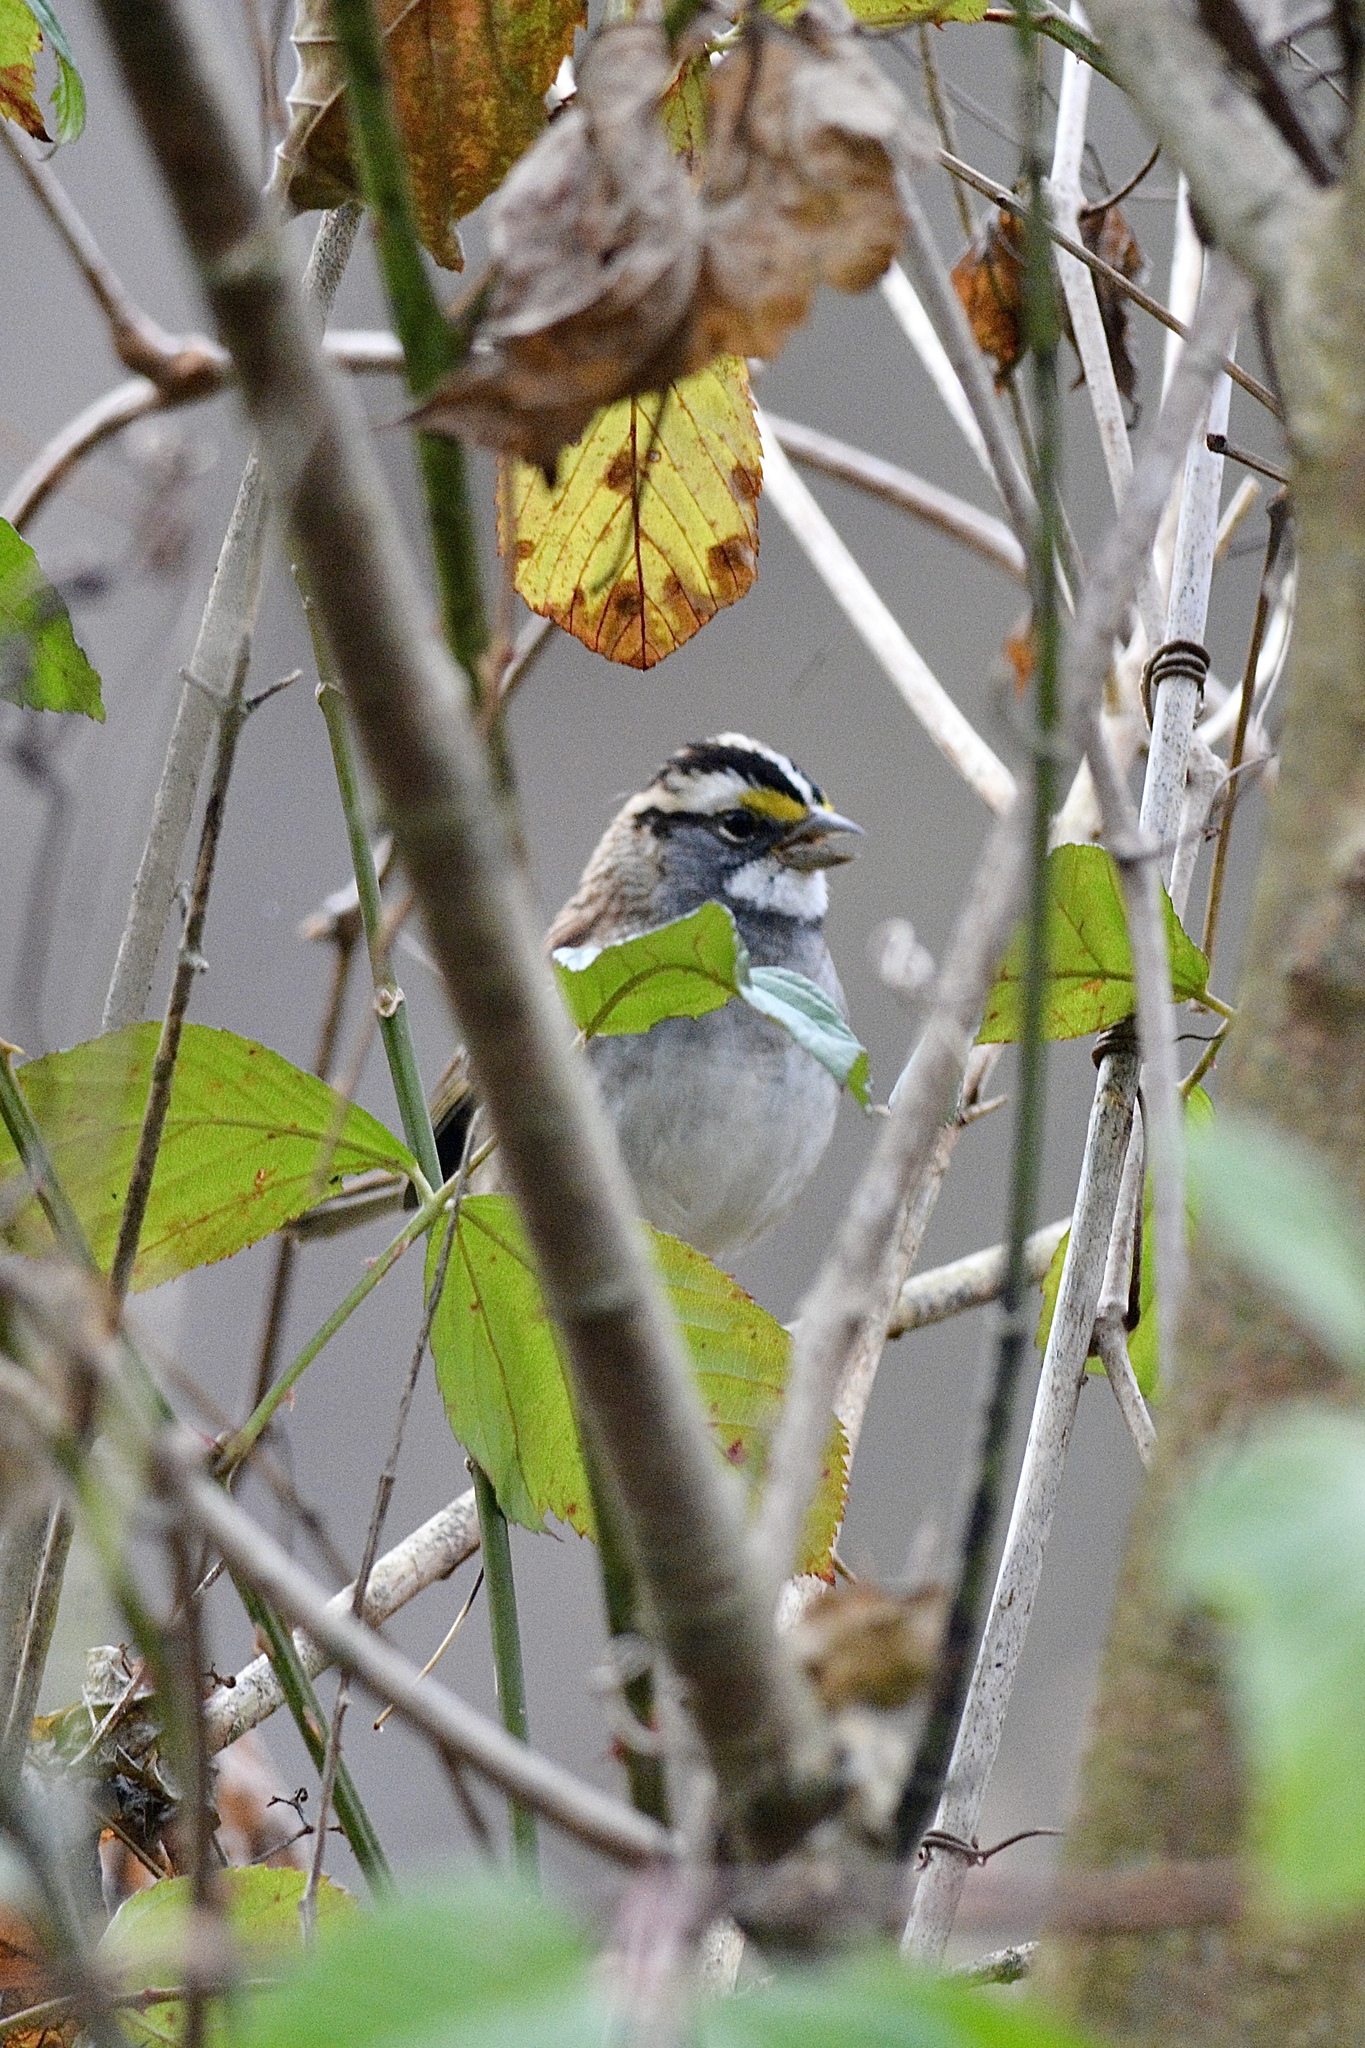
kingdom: Animalia
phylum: Chordata
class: Aves
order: Passeriformes
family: Passerellidae
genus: Zonotrichia
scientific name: Zonotrichia albicollis
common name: White-throated sparrow
